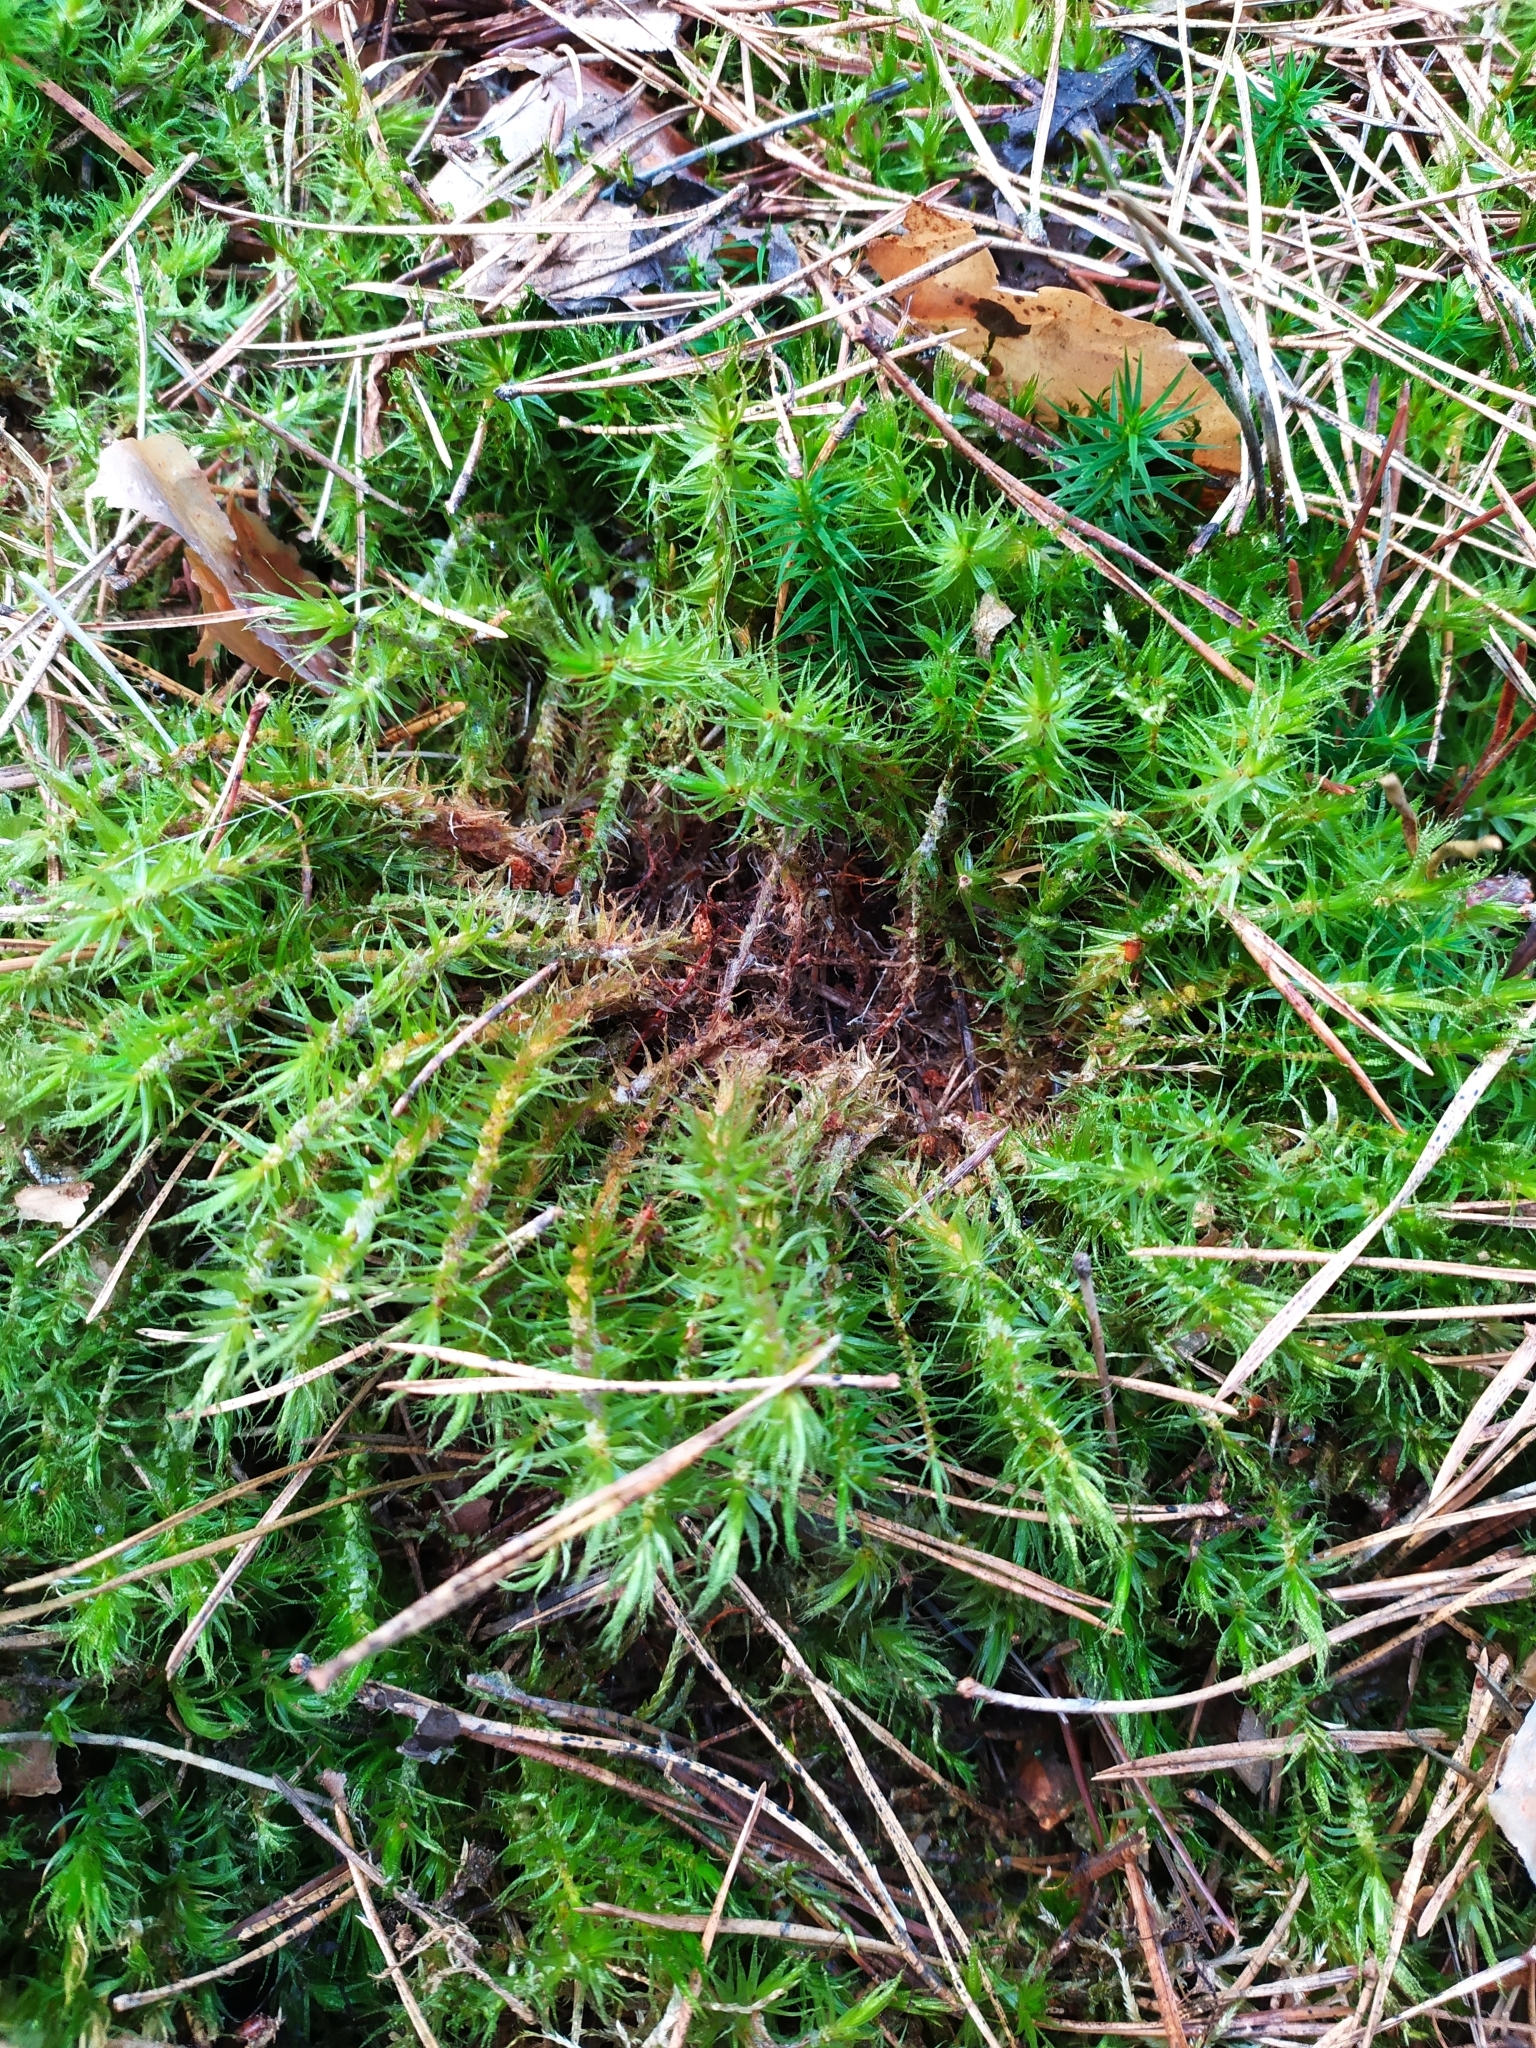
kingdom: Plantae
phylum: Bryophyta
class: Bryopsida
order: Dicranales
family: Dicranaceae
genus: Dicranum
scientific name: Dicranum polysetum
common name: Rugose fork-moss
